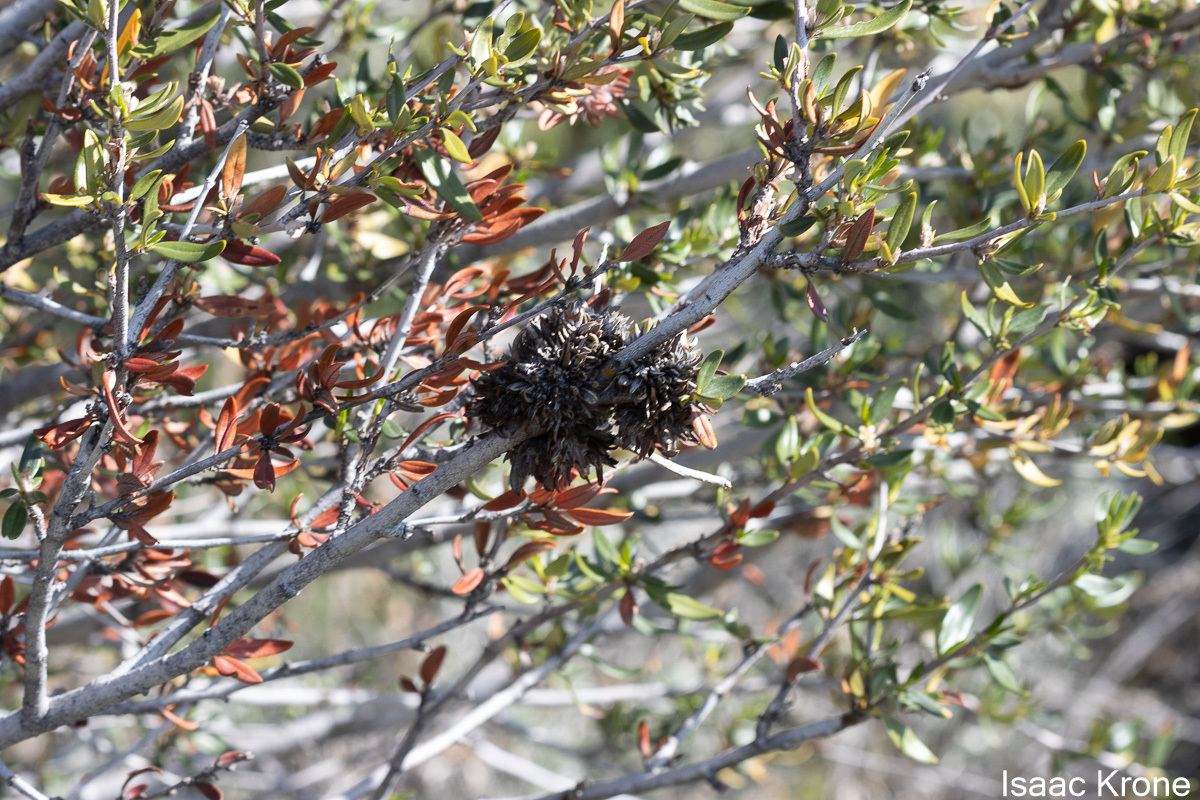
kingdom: Plantae
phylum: Tracheophyta
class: Magnoliopsida
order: Rosales
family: Rosaceae
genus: Cercocarpus
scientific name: Cercocarpus ledifolius
